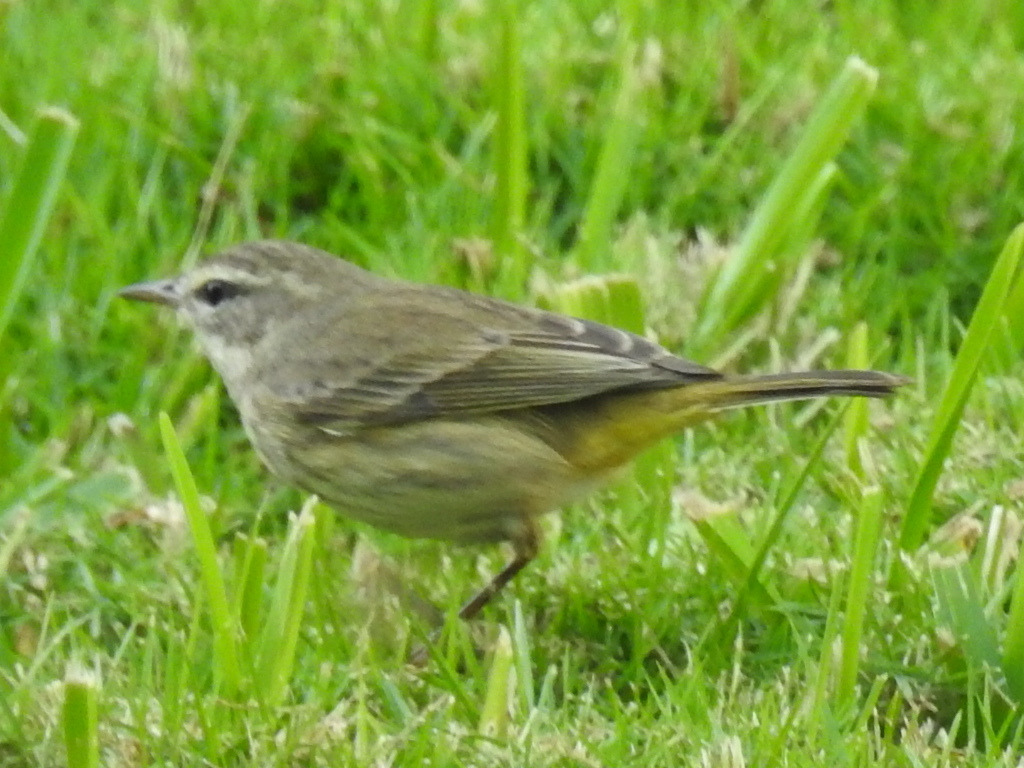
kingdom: Animalia
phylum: Chordata
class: Aves
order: Passeriformes
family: Parulidae
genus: Setophaga
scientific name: Setophaga palmarum
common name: Palm warbler
